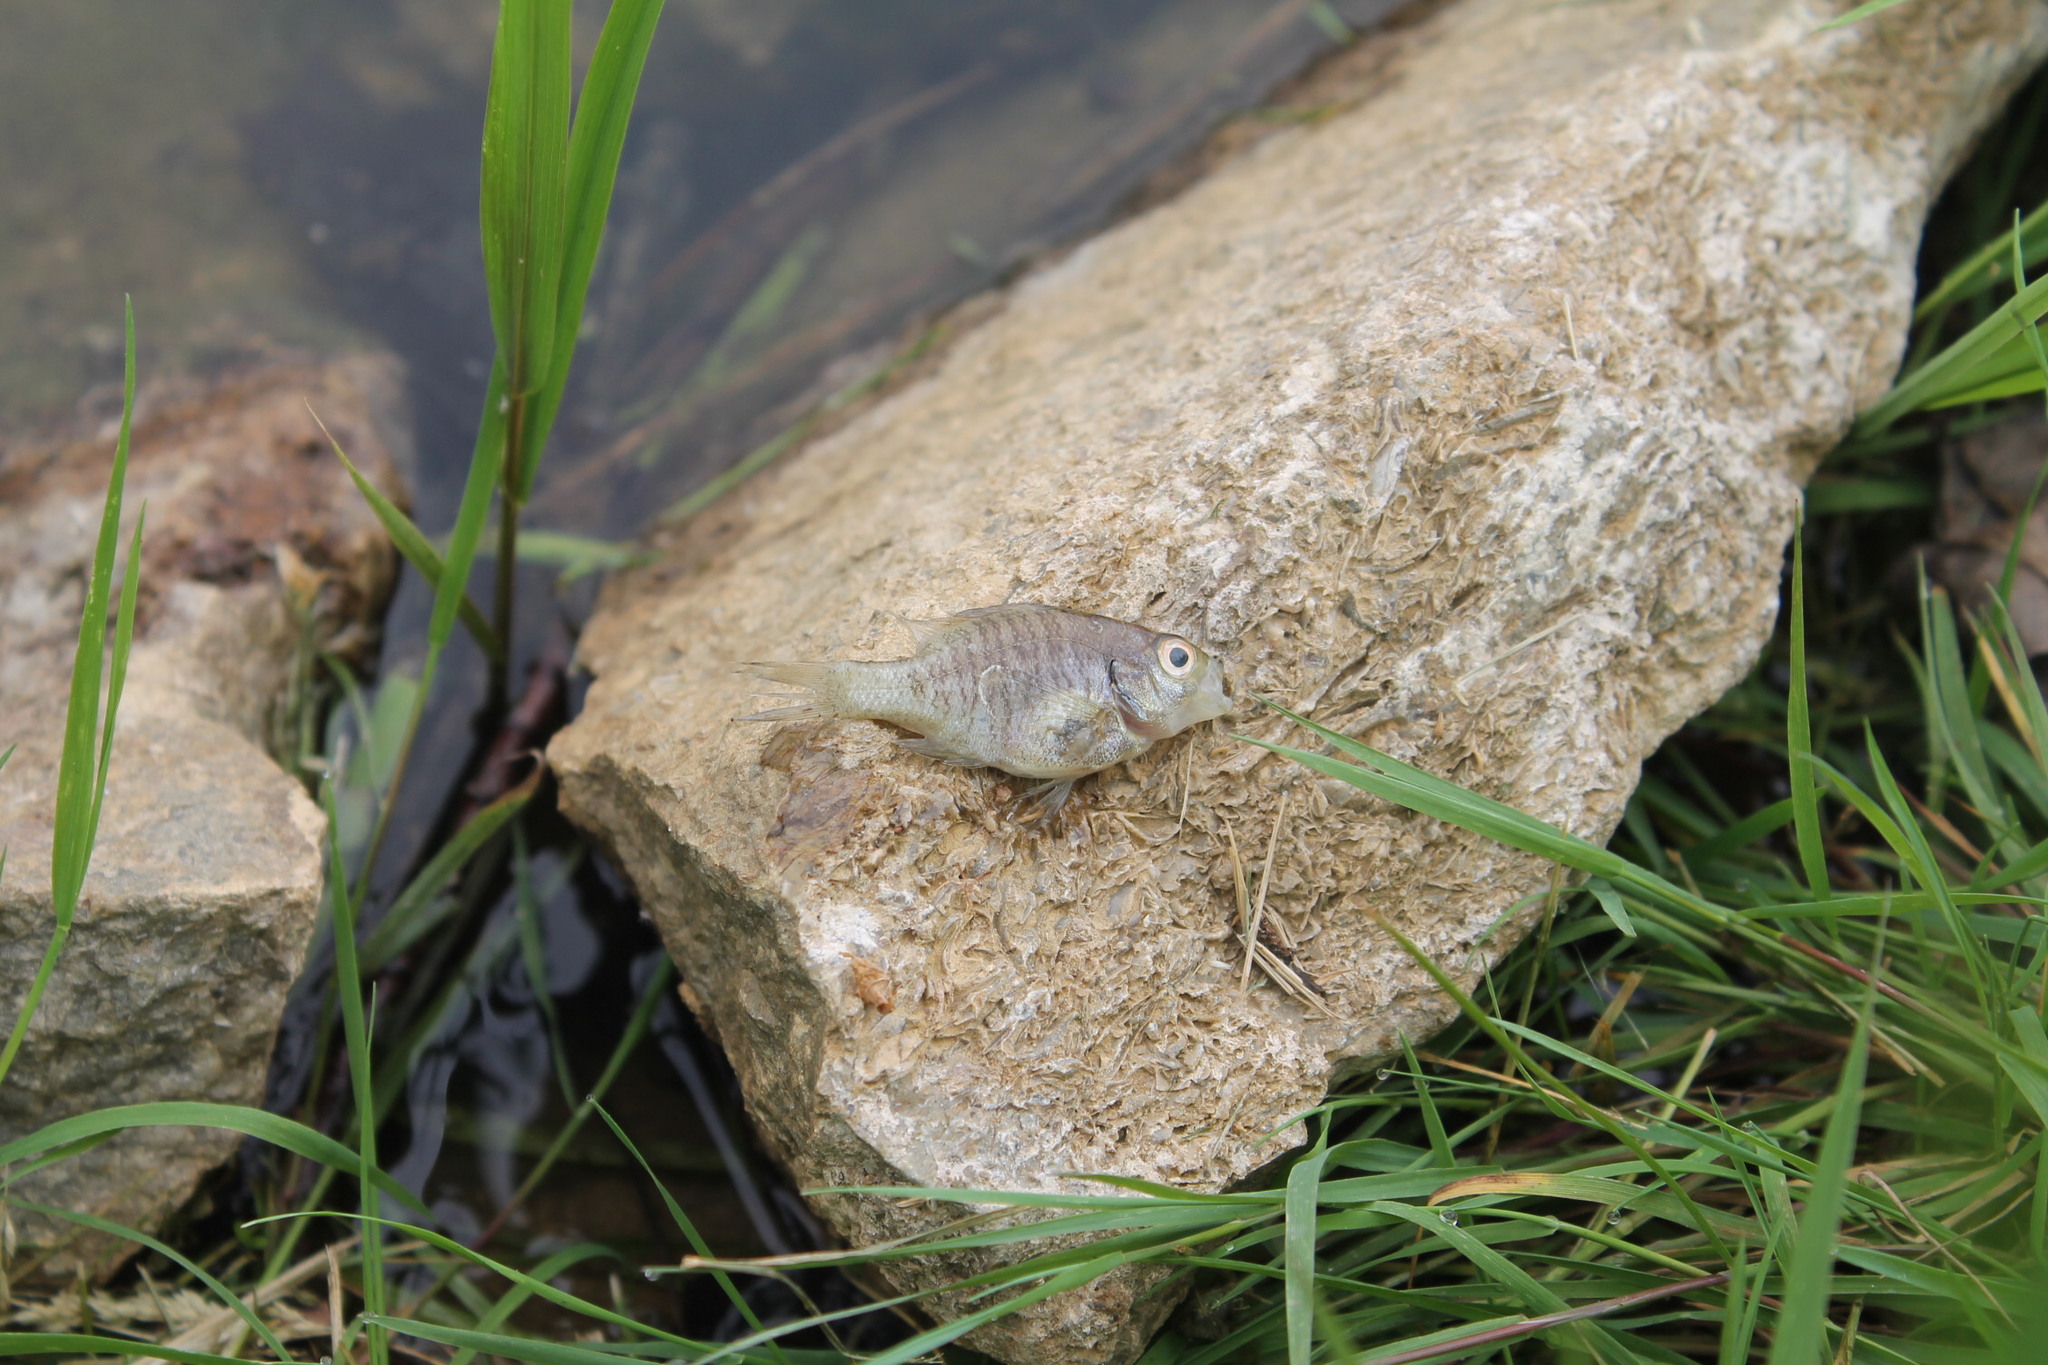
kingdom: Animalia
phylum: Chordata
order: Perciformes
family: Centrarchidae
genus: Lepomis
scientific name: Lepomis macrochirus
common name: Bluegill
